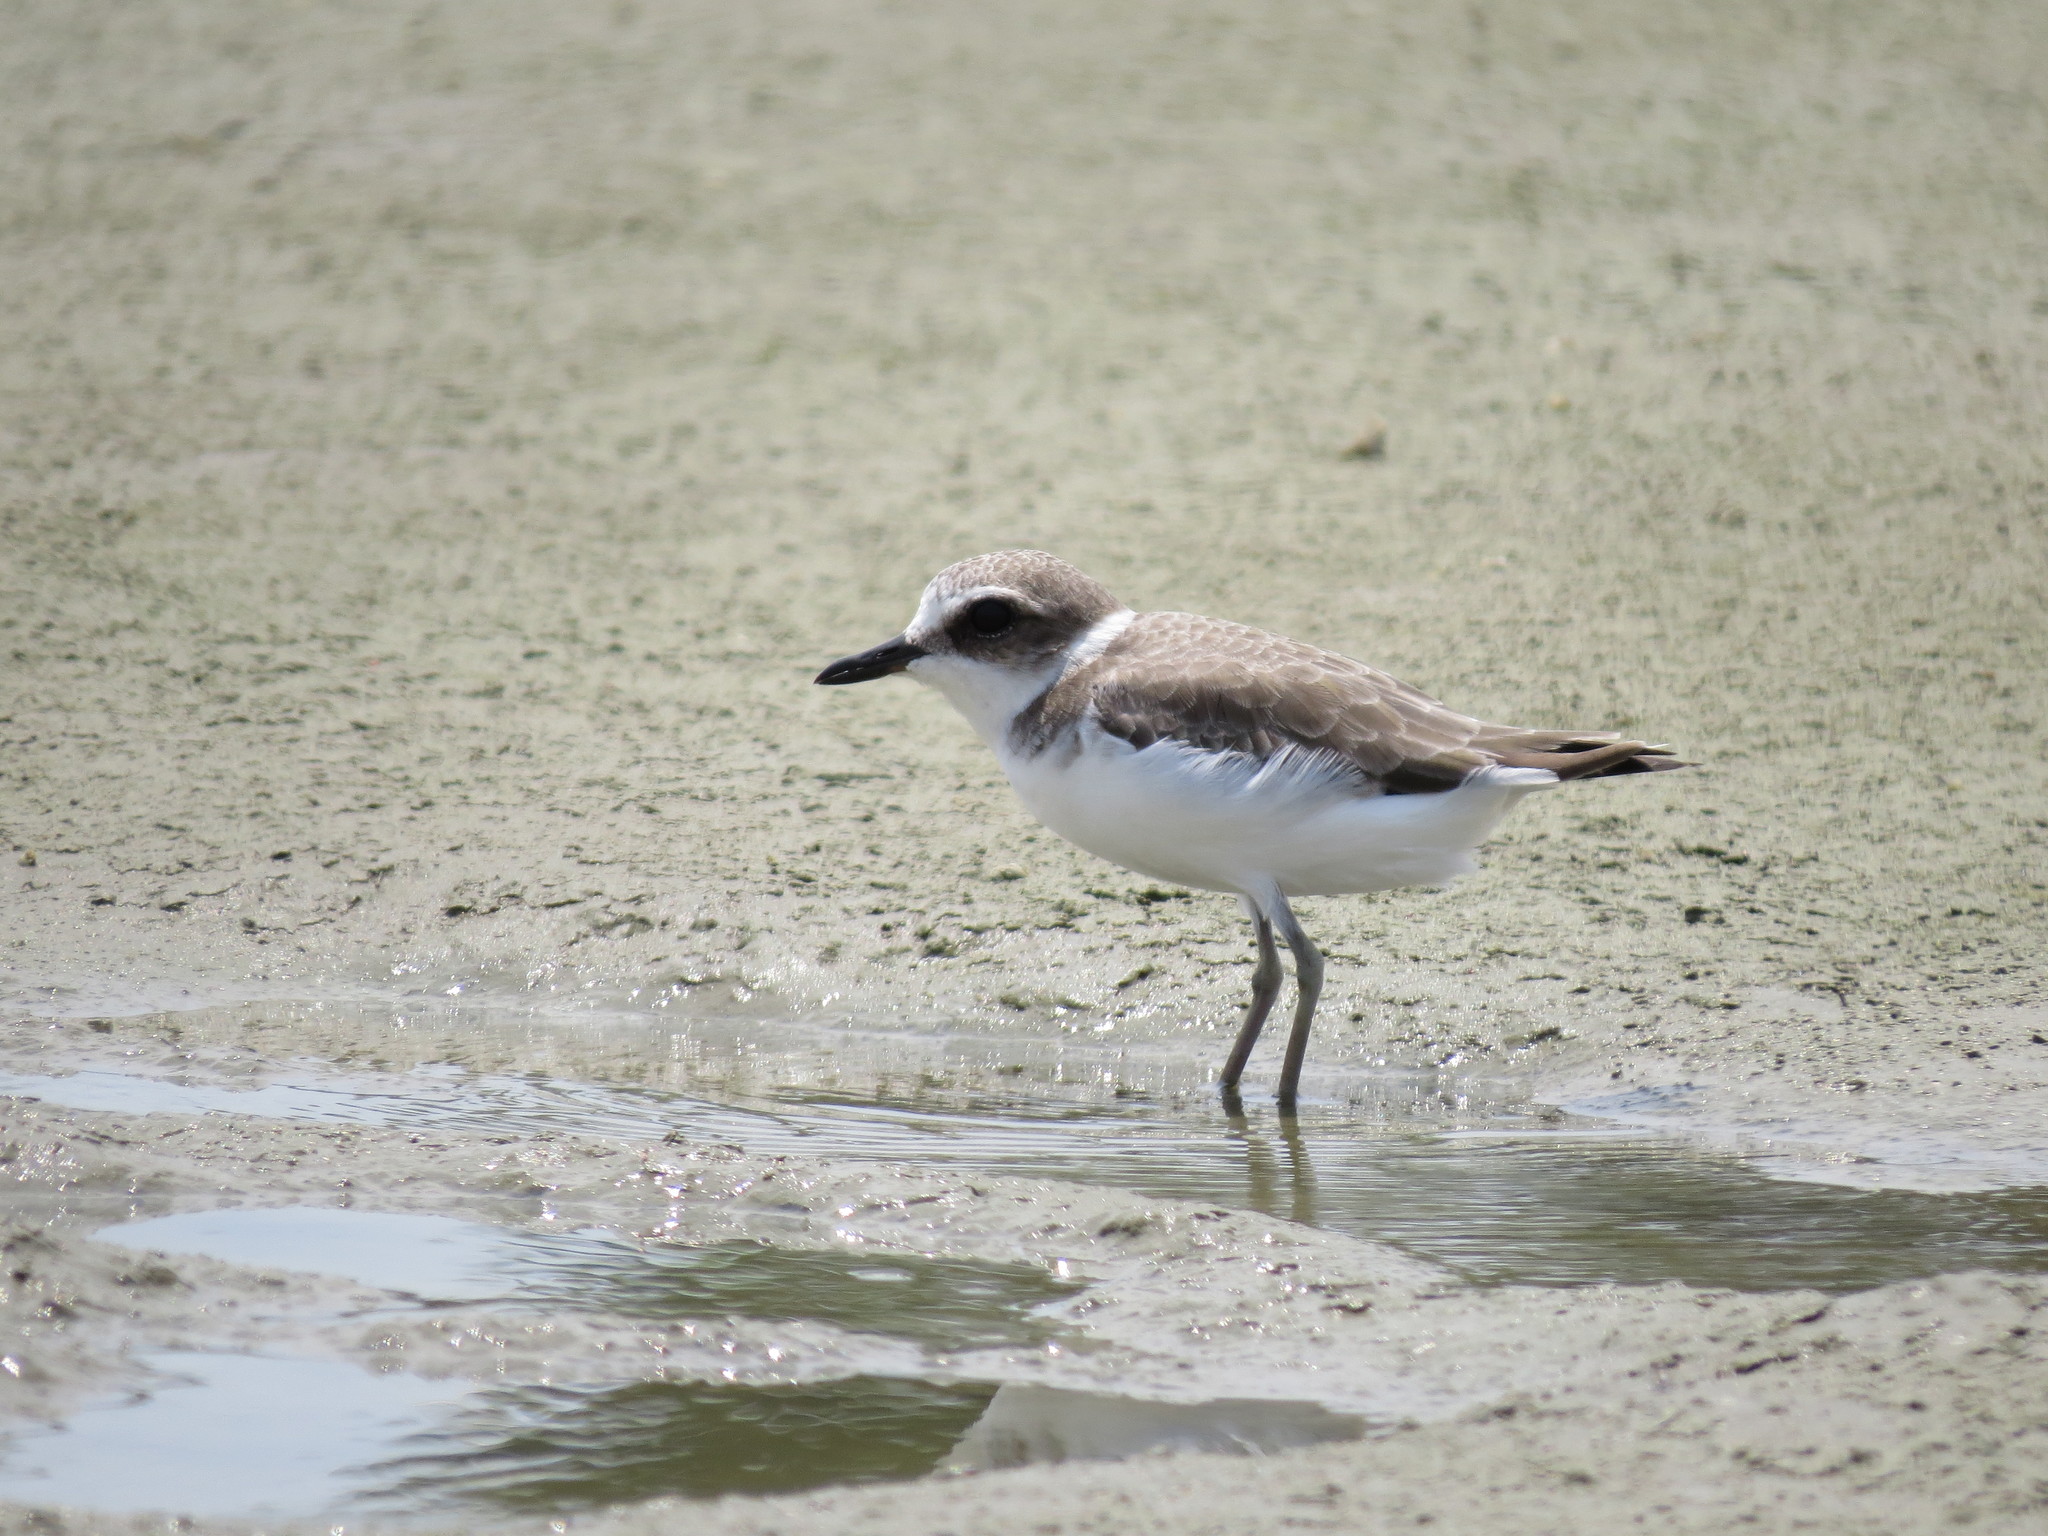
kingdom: Animalia
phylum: Chordata
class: Aves
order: Charadriiformes
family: Charadriidae
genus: Charadrius
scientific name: Charadrius alexandrinus
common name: Kentish plover
